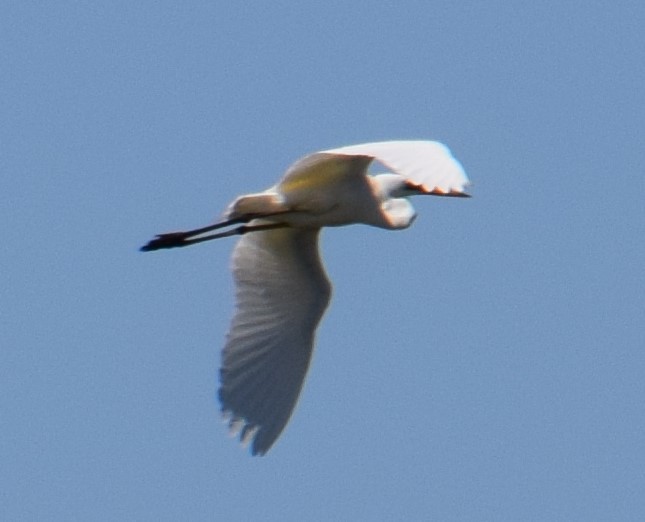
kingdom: Animalia
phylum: Chordata
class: Aves
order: Pelecaniformes
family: Ardeidae
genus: Ardea
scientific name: Ardea modesta
